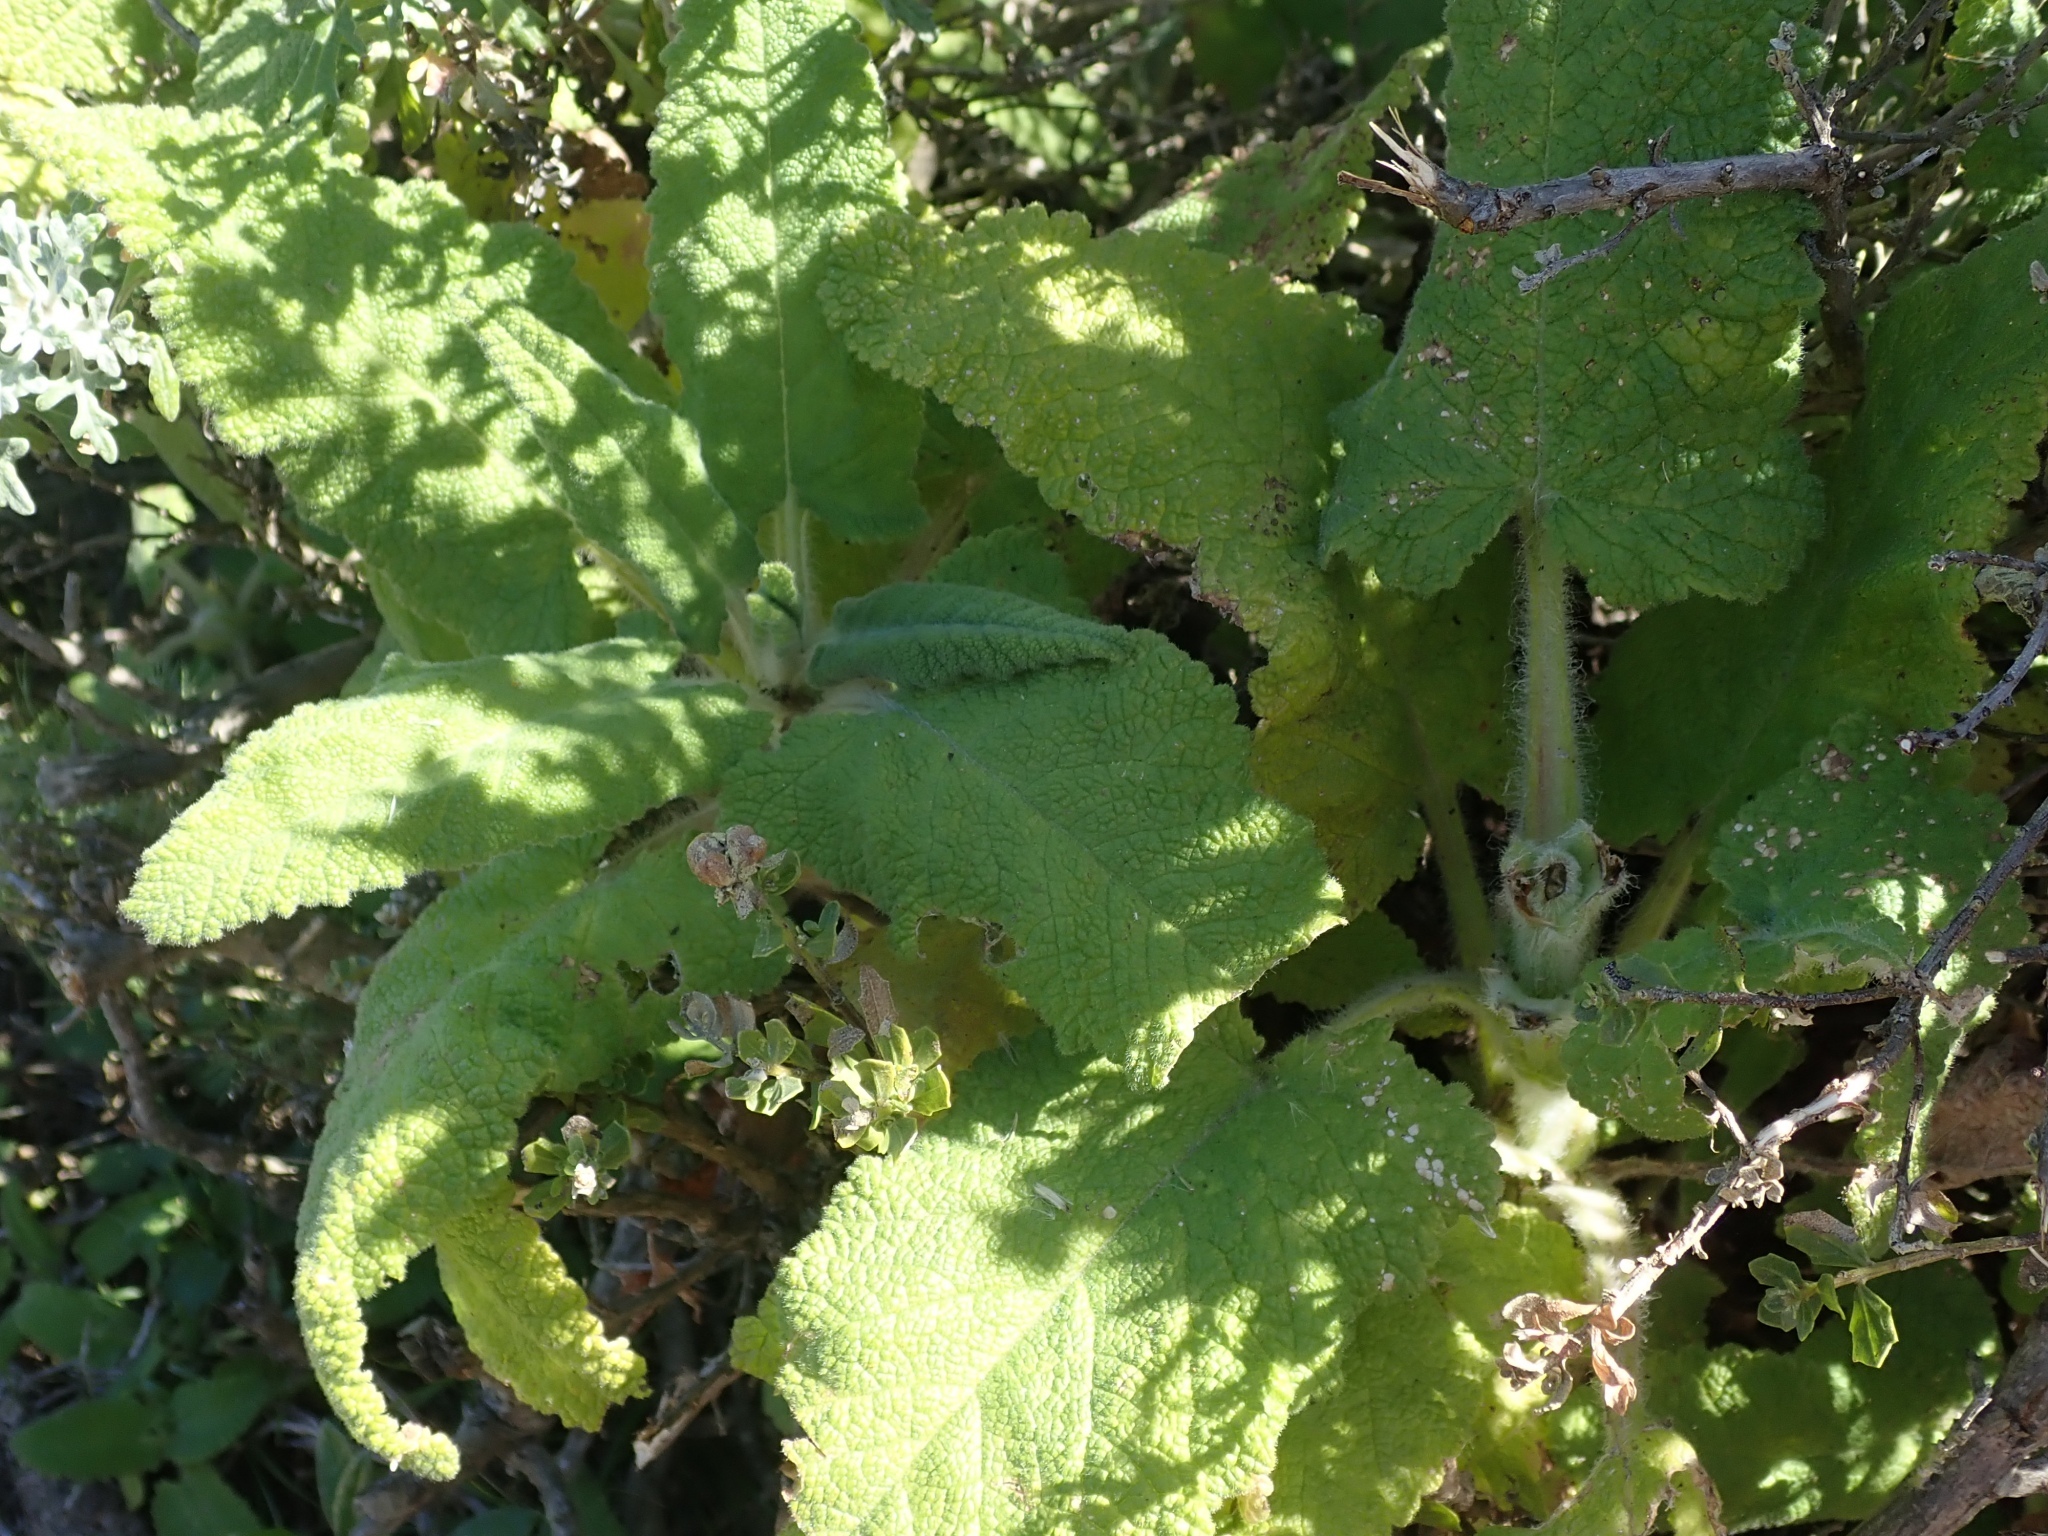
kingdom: Plantae
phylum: Tracheophyta
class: Magnoliopsida
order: Lamiales
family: Lamiaceae
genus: Salvia
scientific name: Salvia spathacea
